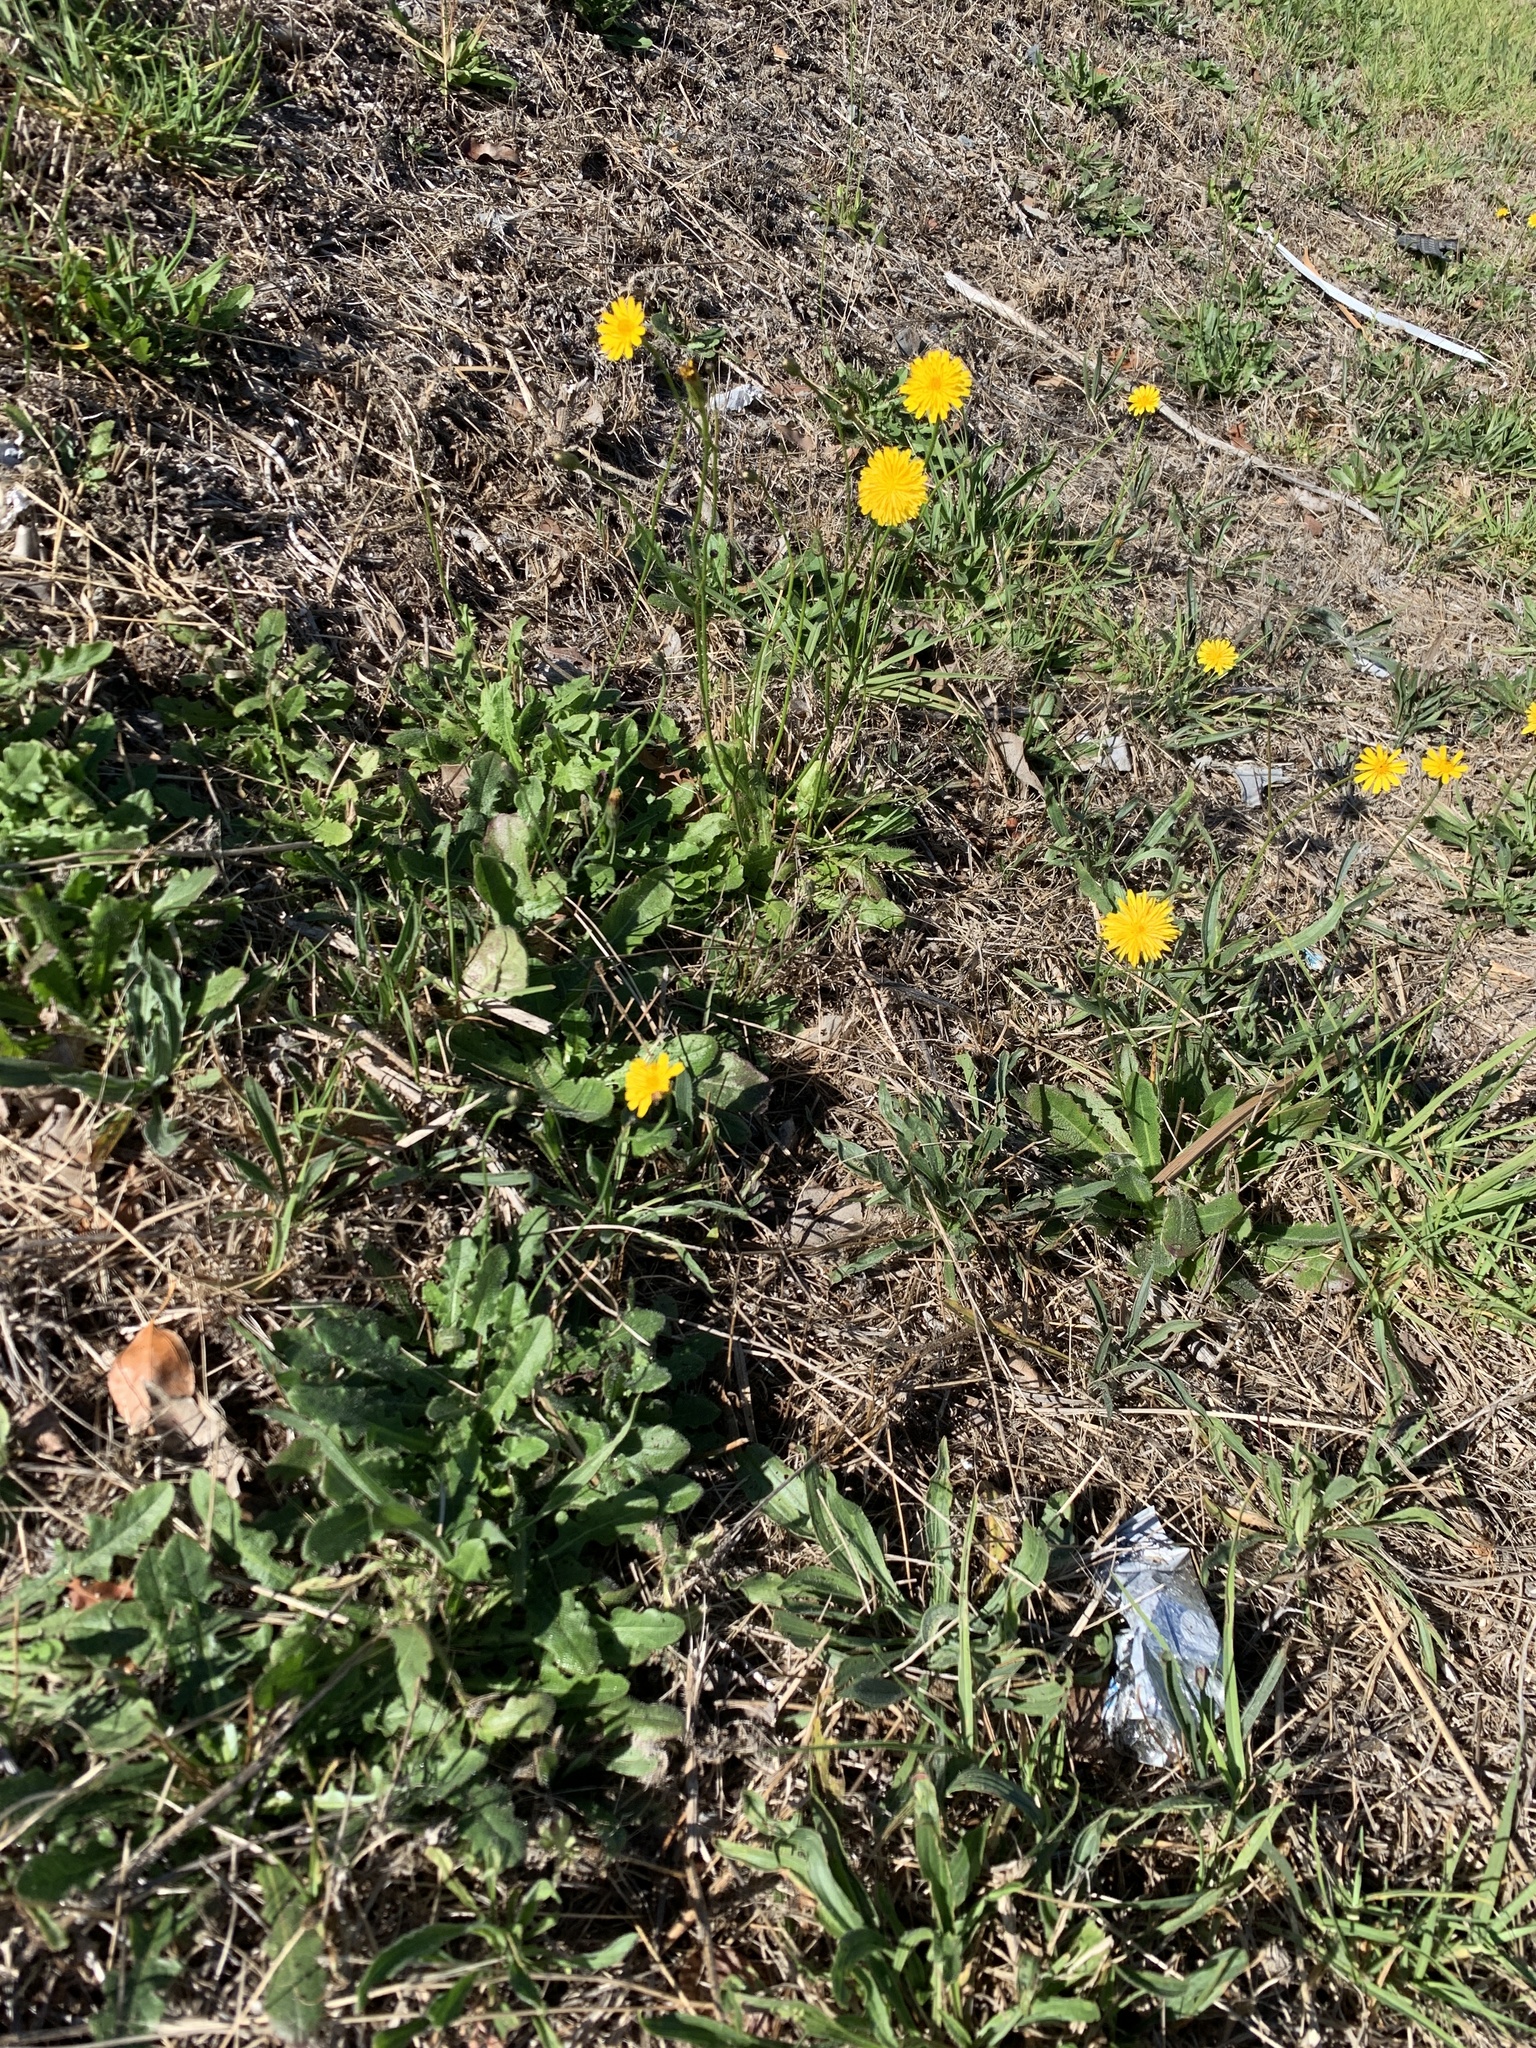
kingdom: Plantae
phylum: Tracheophyta
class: Magnoliopsida
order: Asterales
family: Asteraceae
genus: Hypochaeris
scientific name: Hypochaeris radicata
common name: Flatweed
